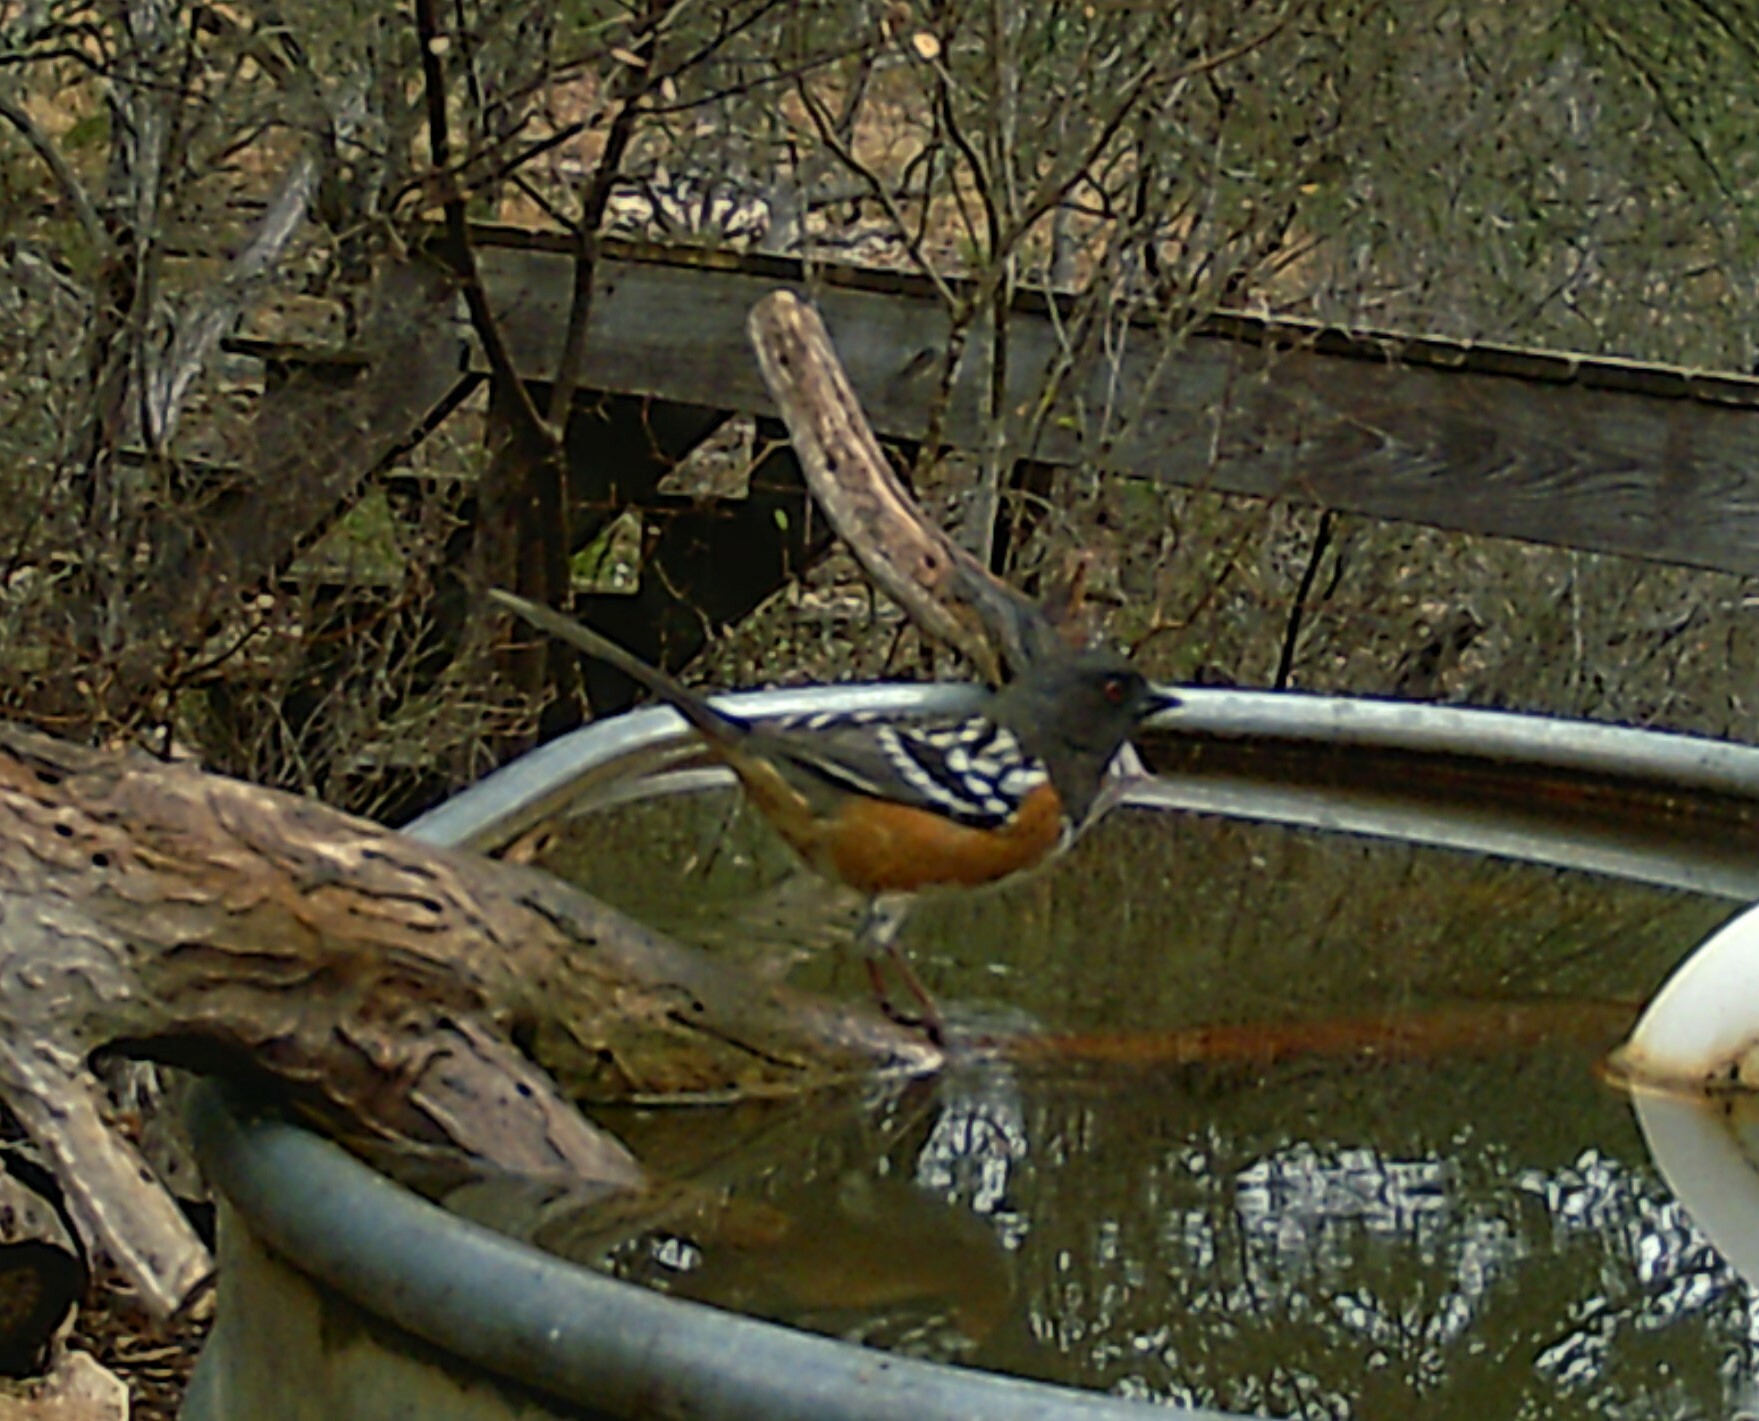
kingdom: Animalia
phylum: Chordata
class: Aves
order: Passeriformes
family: Passerellidae
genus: Pipilo
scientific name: Pipilo maculatus
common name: Spotted towhee
